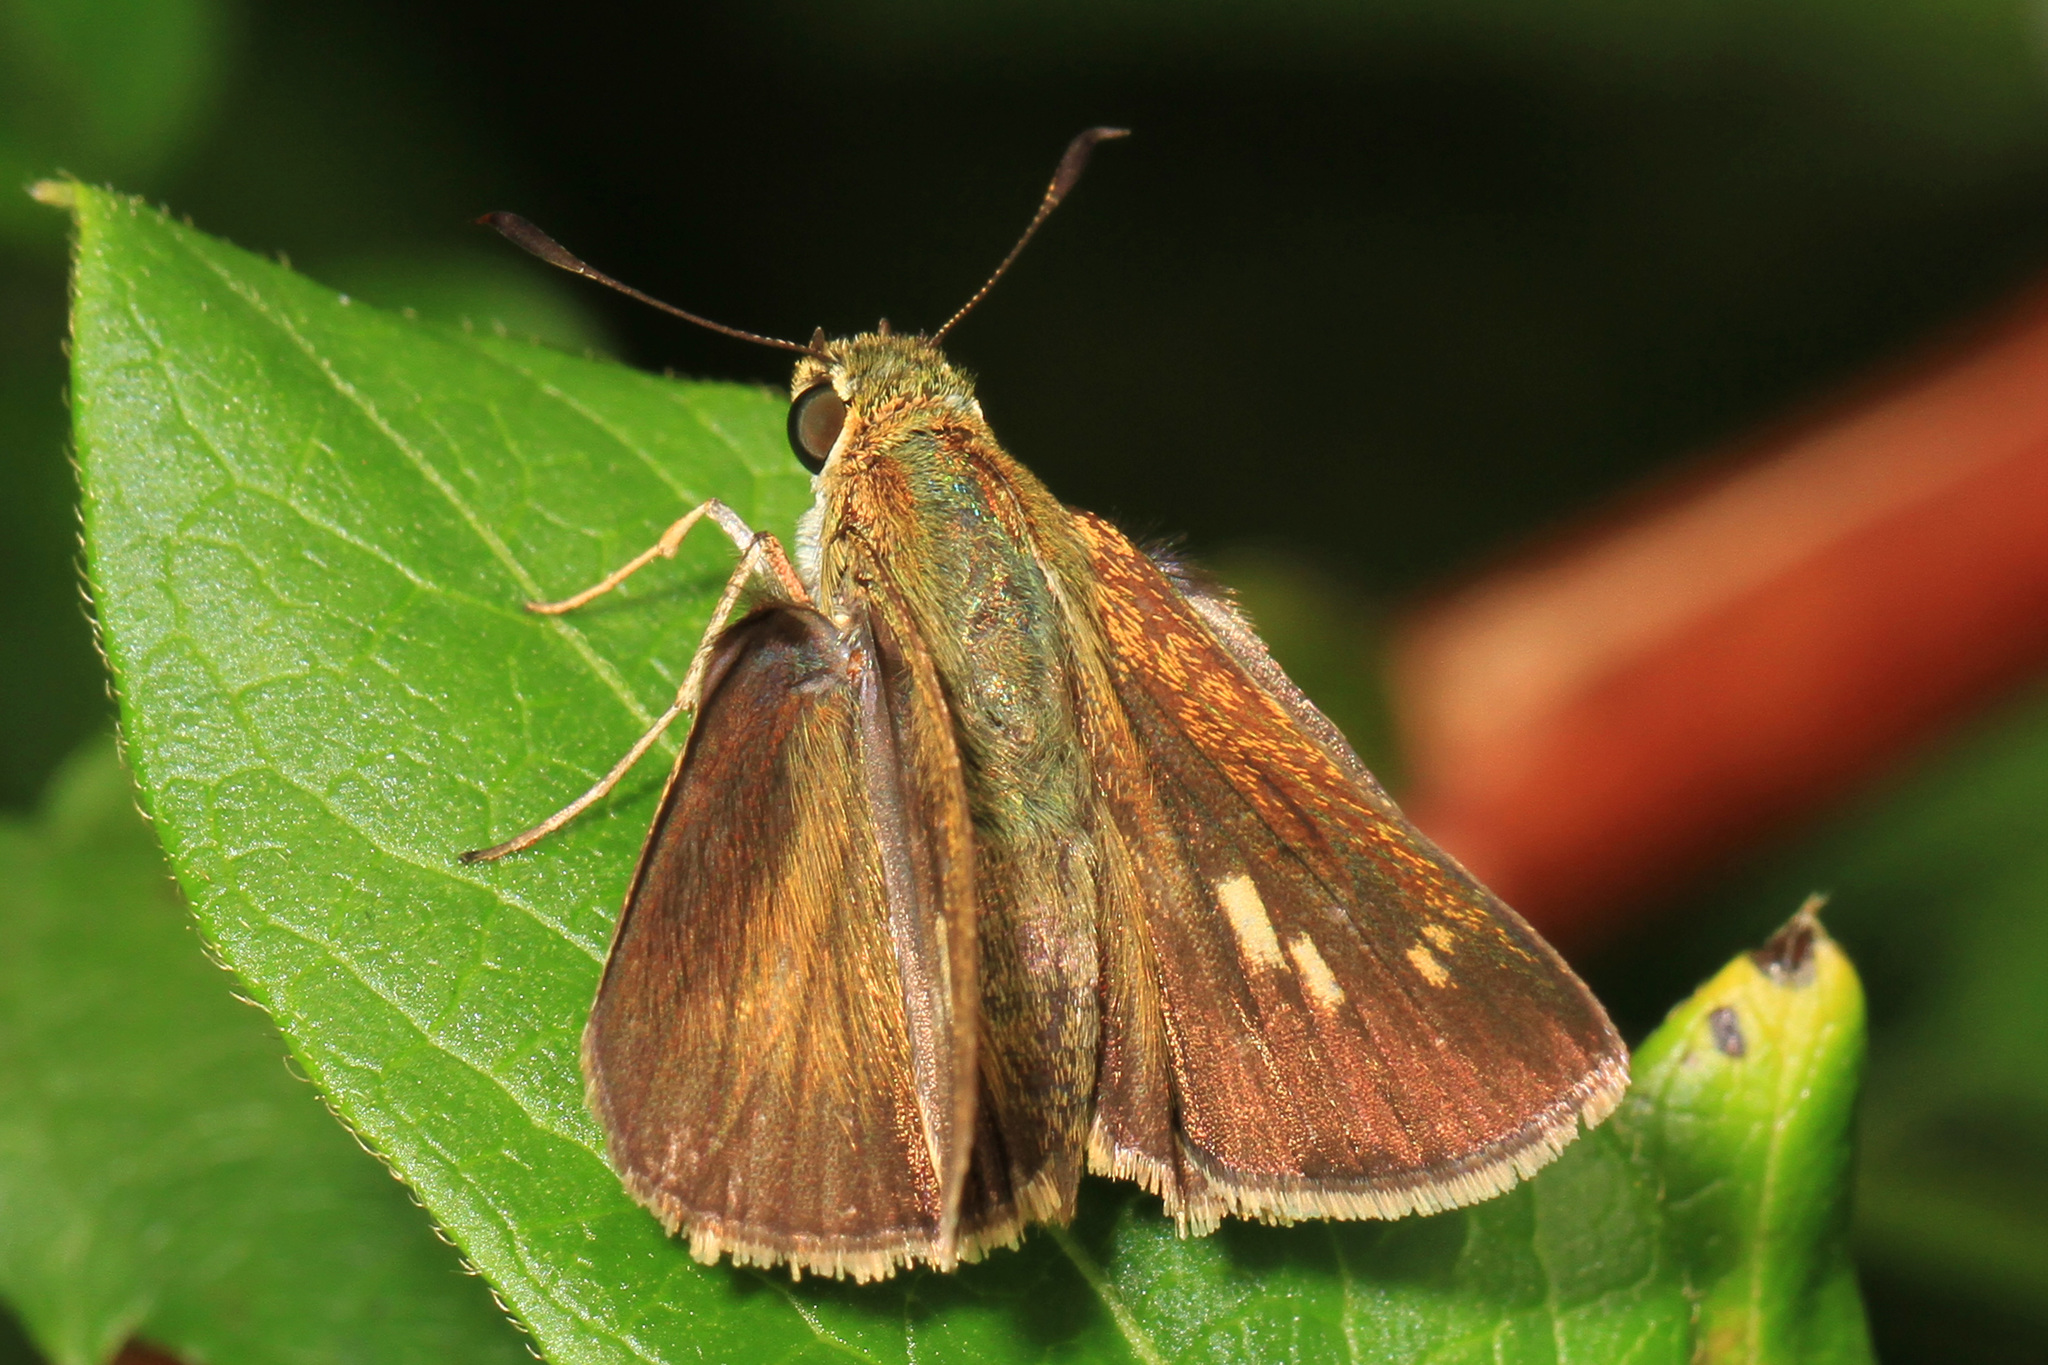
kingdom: Animalia
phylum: Arthropoda
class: Insecta
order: Lepidoptera
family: Hesperiidae
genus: Polites
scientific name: Polites egeremet
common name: Northern broken-dash
